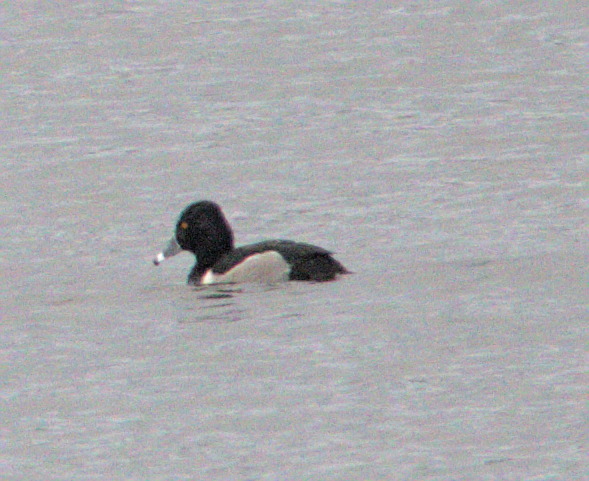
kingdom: Animalia
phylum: Chordata
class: Aves
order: Anseriformes
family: Anatidae
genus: Aythya
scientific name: Aythya collaris
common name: Ring-necked duck
